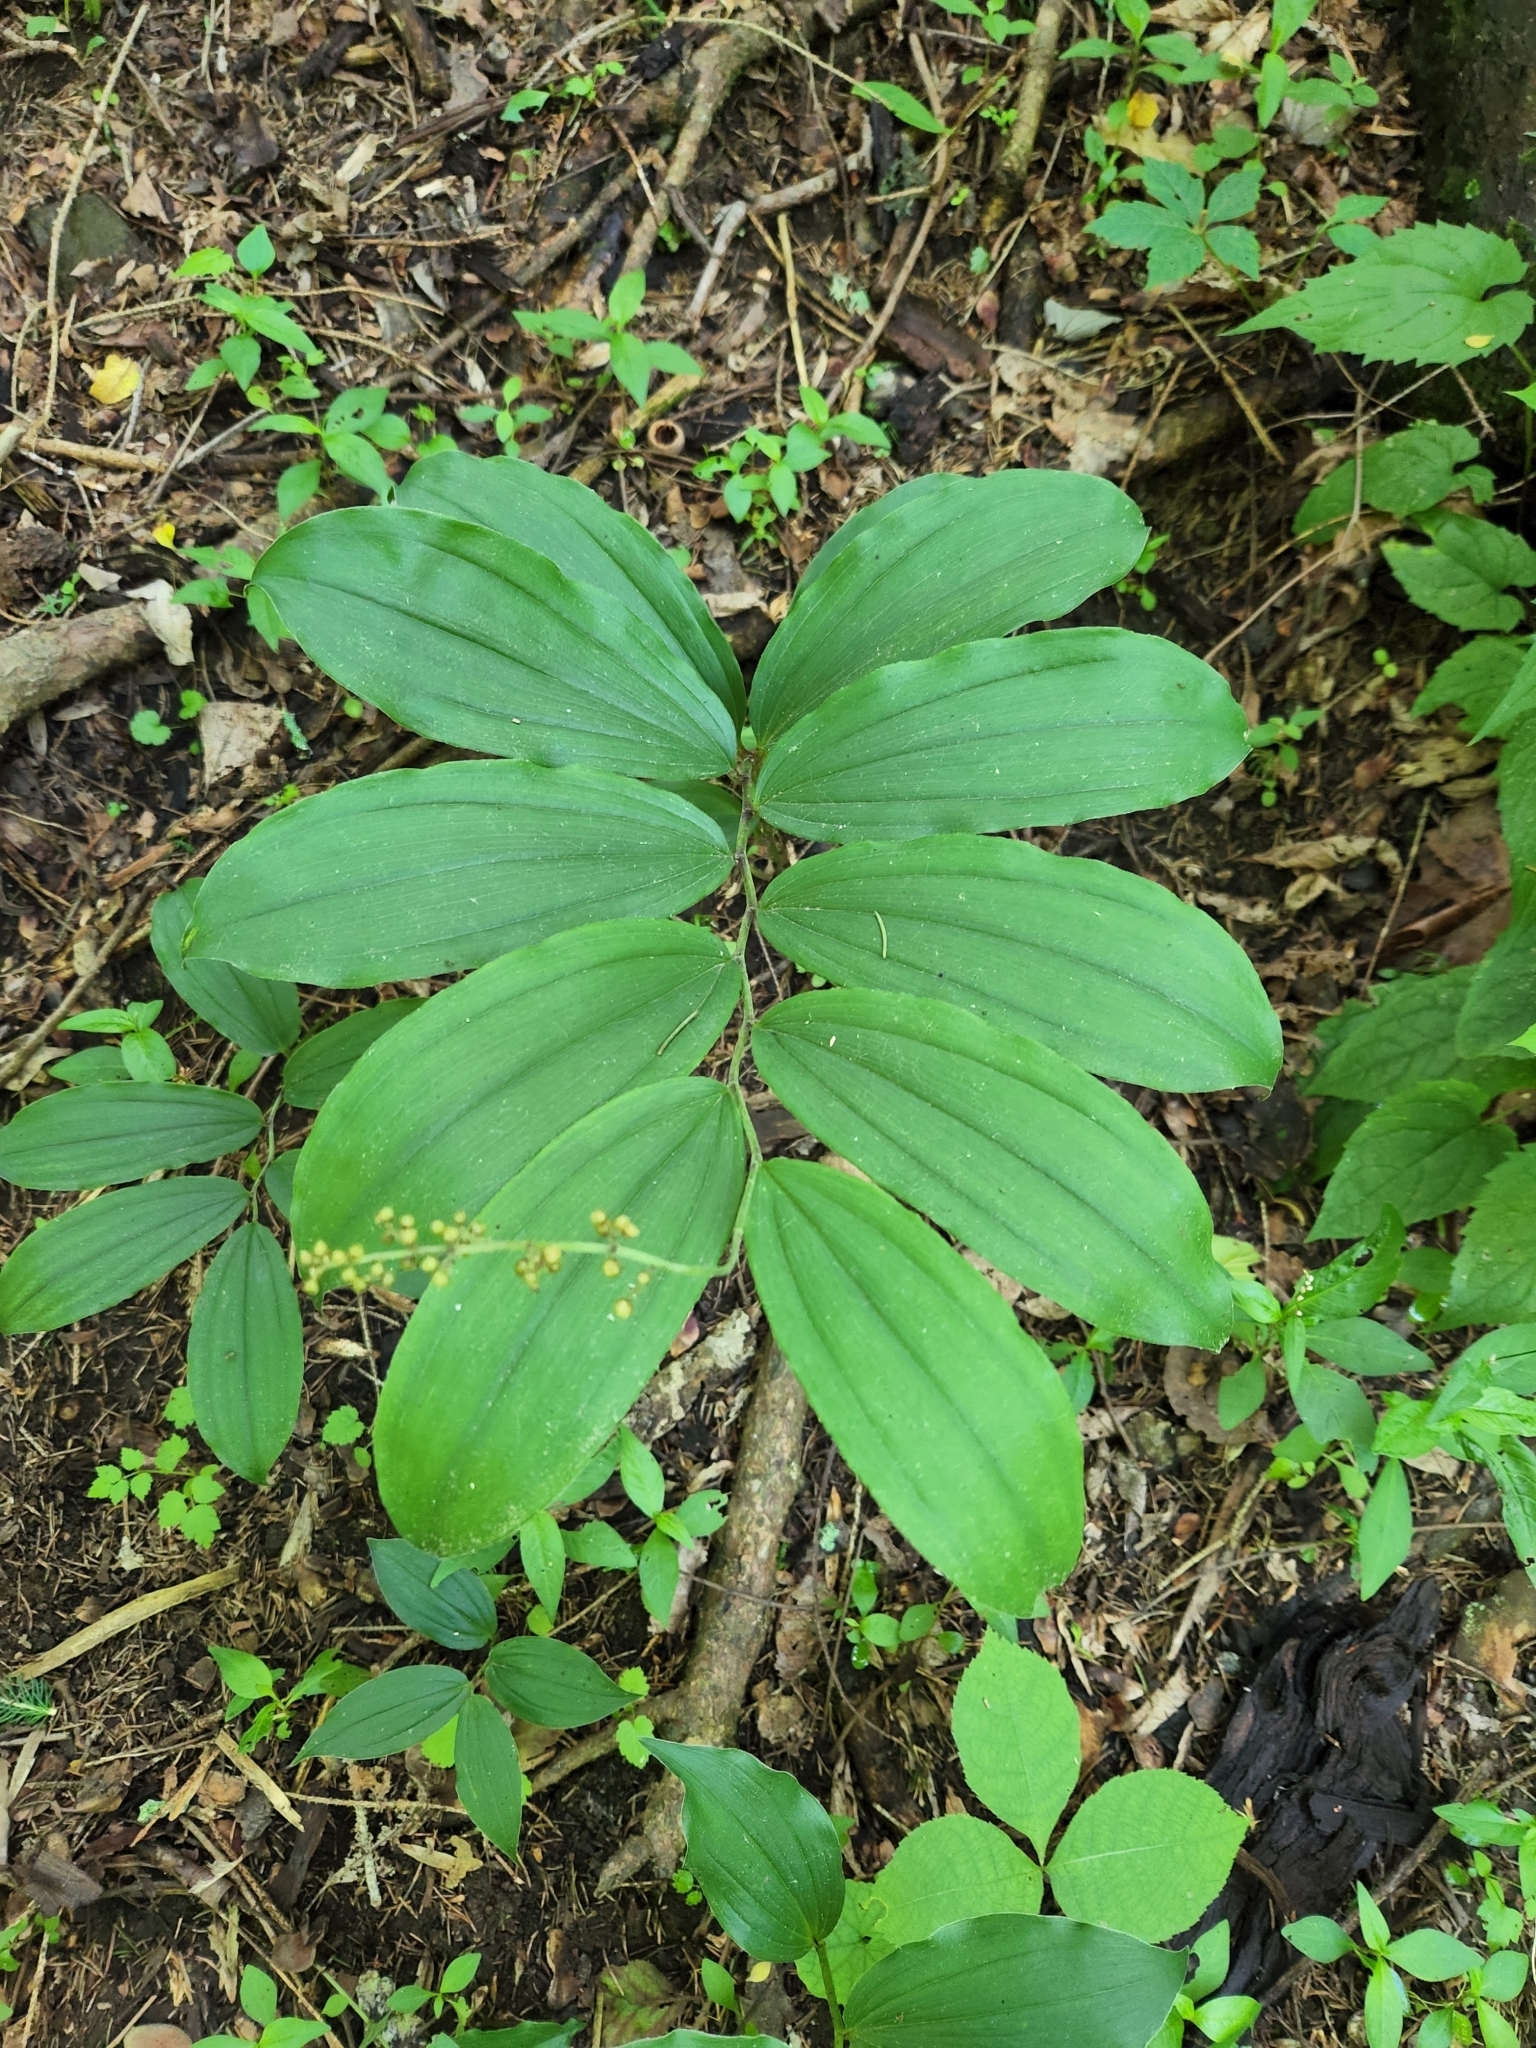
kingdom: Plantae
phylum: Tracheophyta
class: Liliopsida
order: Asparagales
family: Asparagaceae
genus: Maianthemum
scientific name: Maianthemum racemosum
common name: False spikenard
